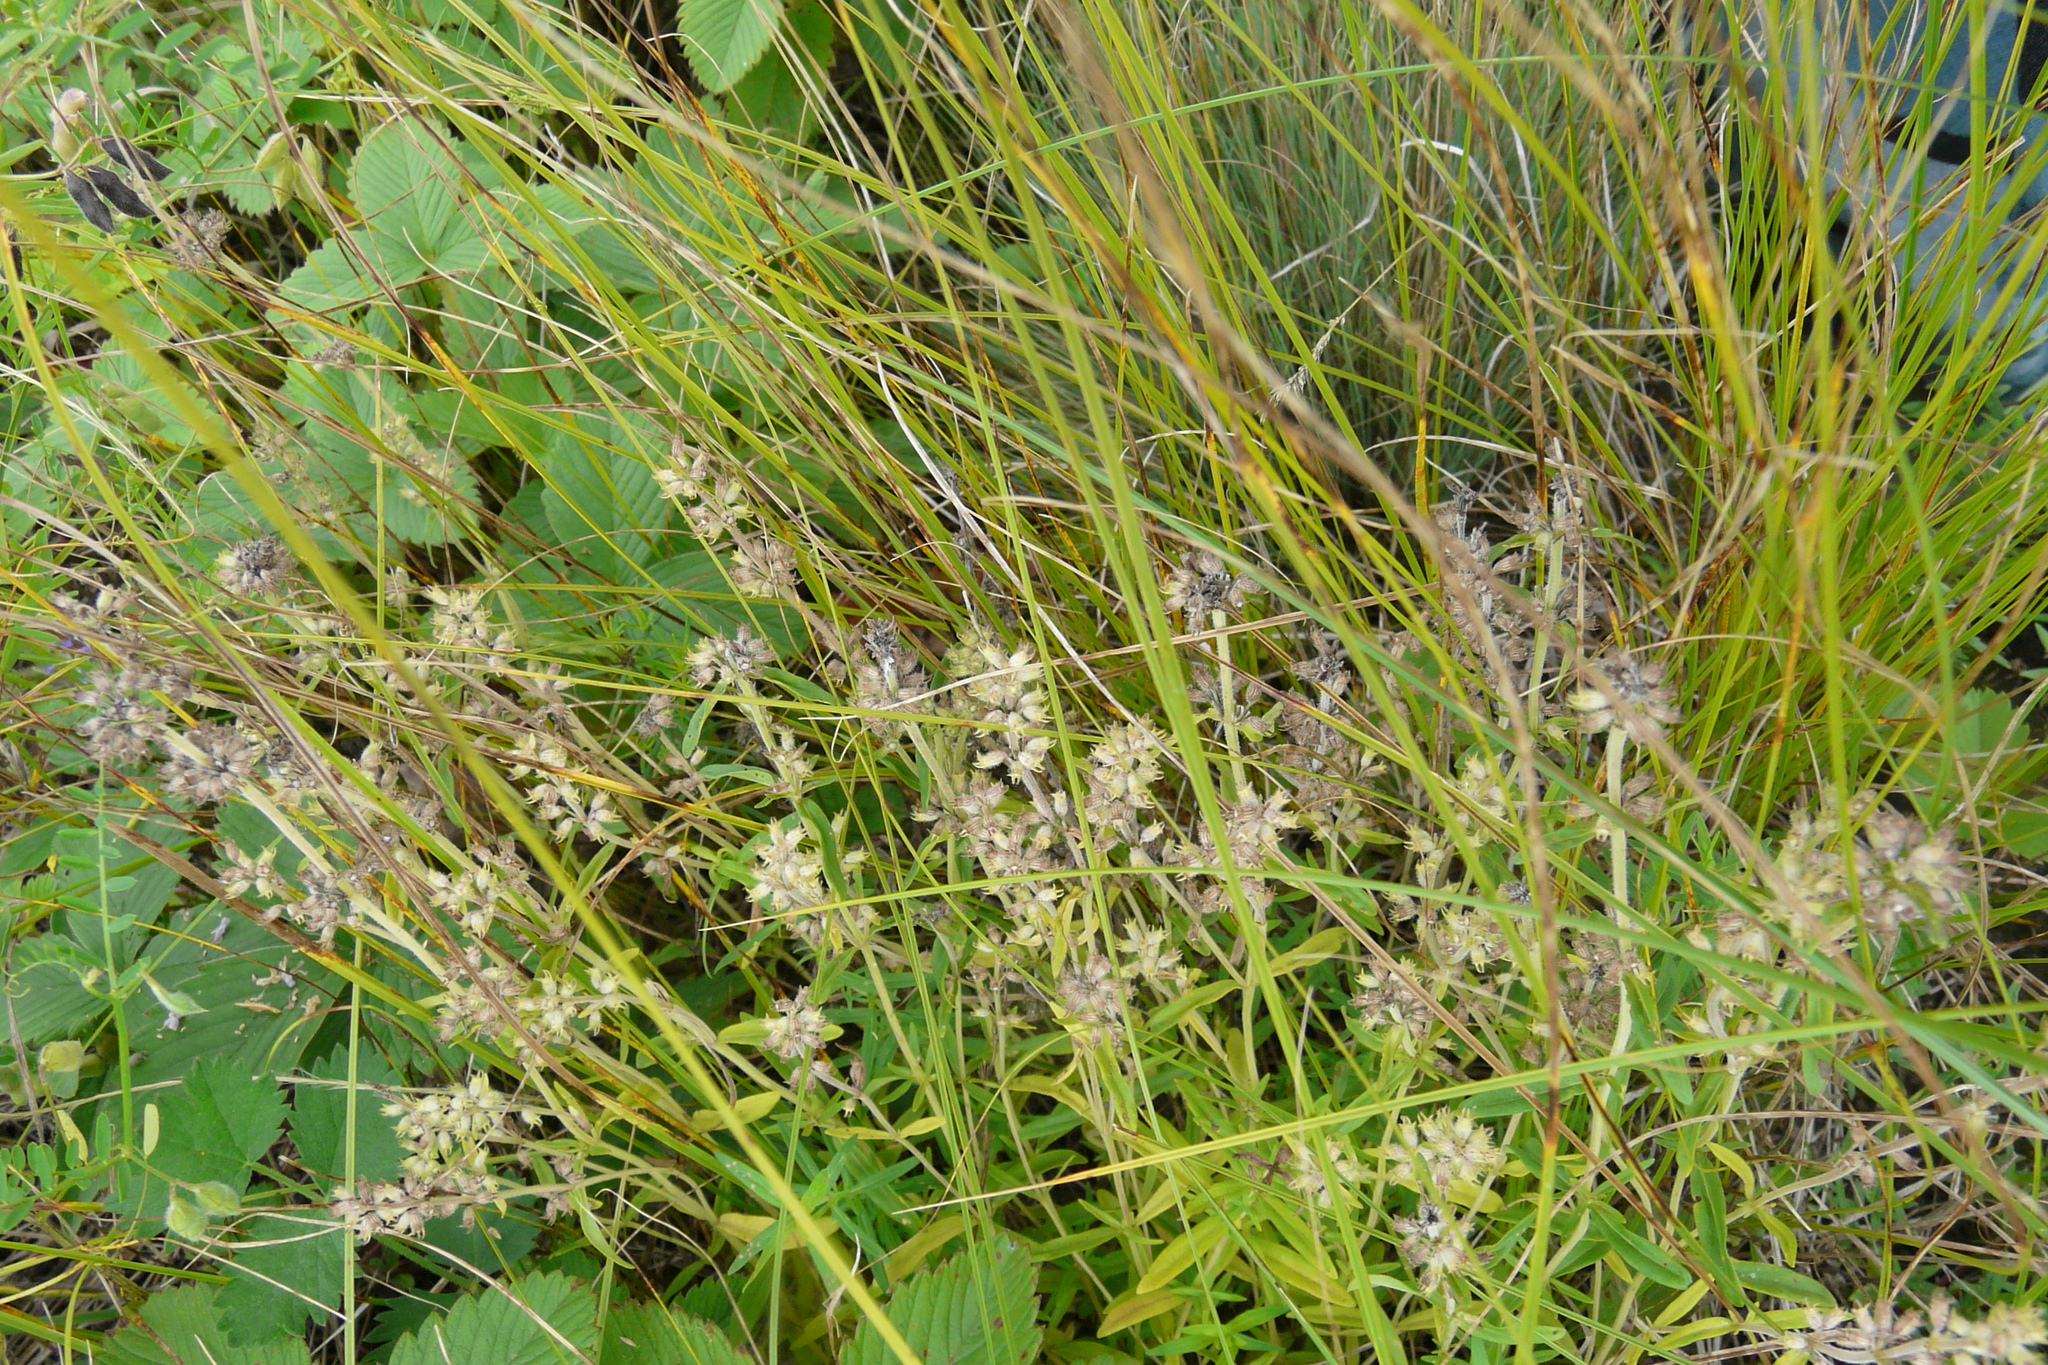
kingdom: Plantae
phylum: Tracheophyta
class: Magnoliopsida
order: Lamiales
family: Lamiaceae
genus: Thymus
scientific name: Thymus pannonicus
